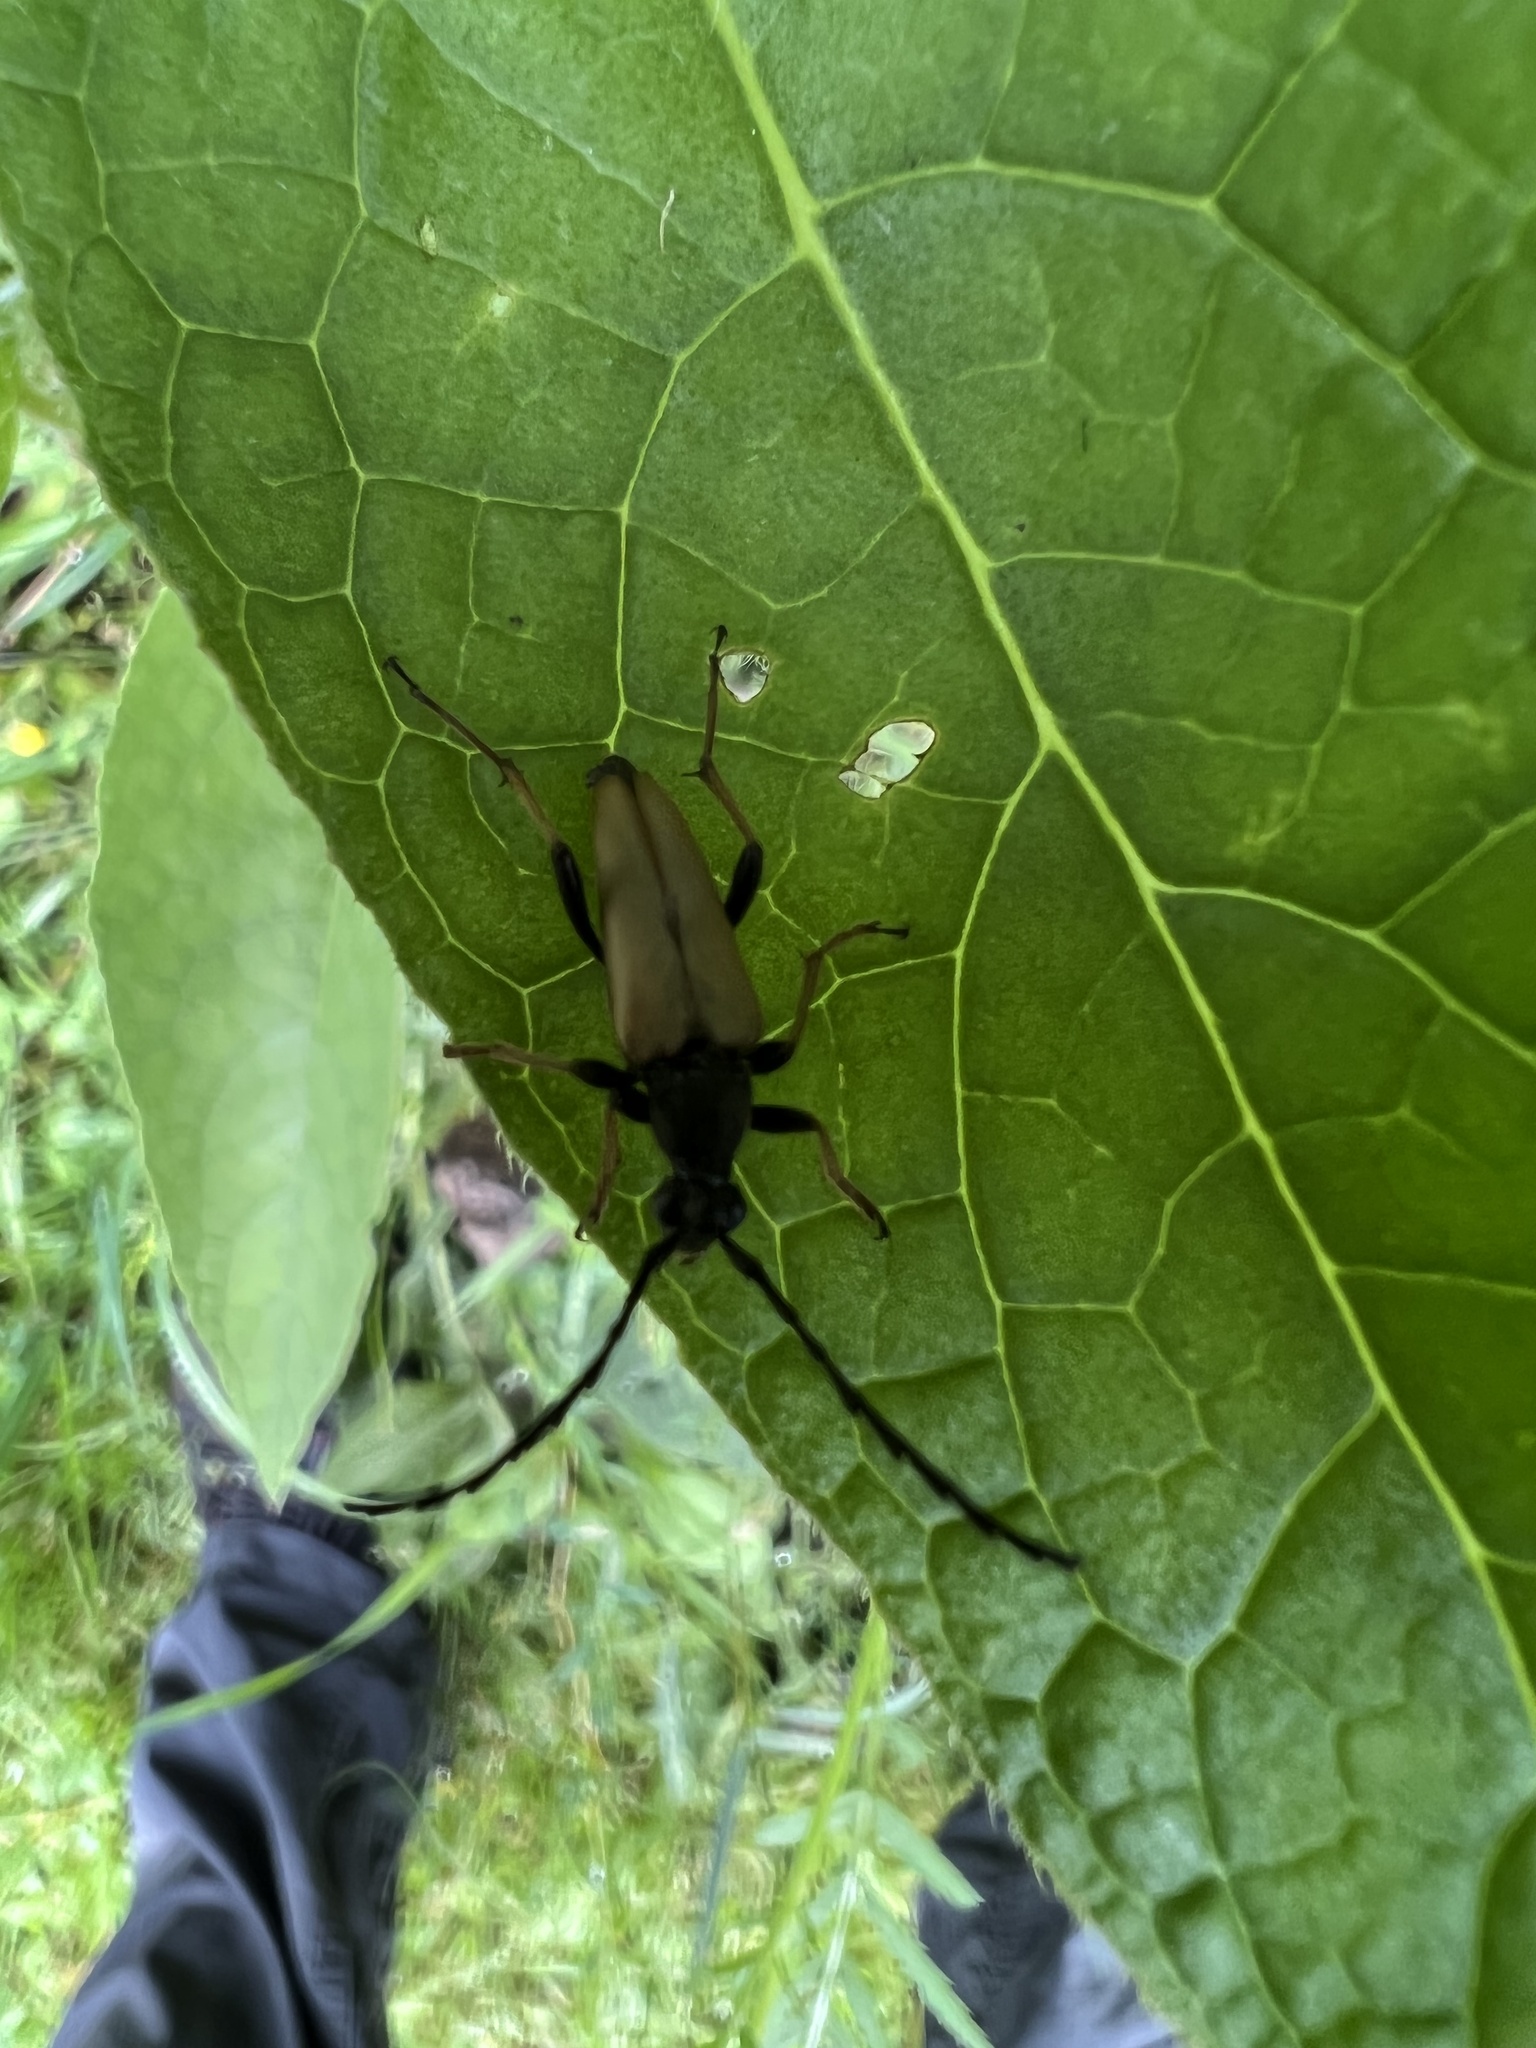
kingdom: Animalia
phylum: Arthropoda
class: Insecta
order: Coleoptera
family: Cerambycidae
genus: Stictoleptura
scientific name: Stictoleptura rubra
